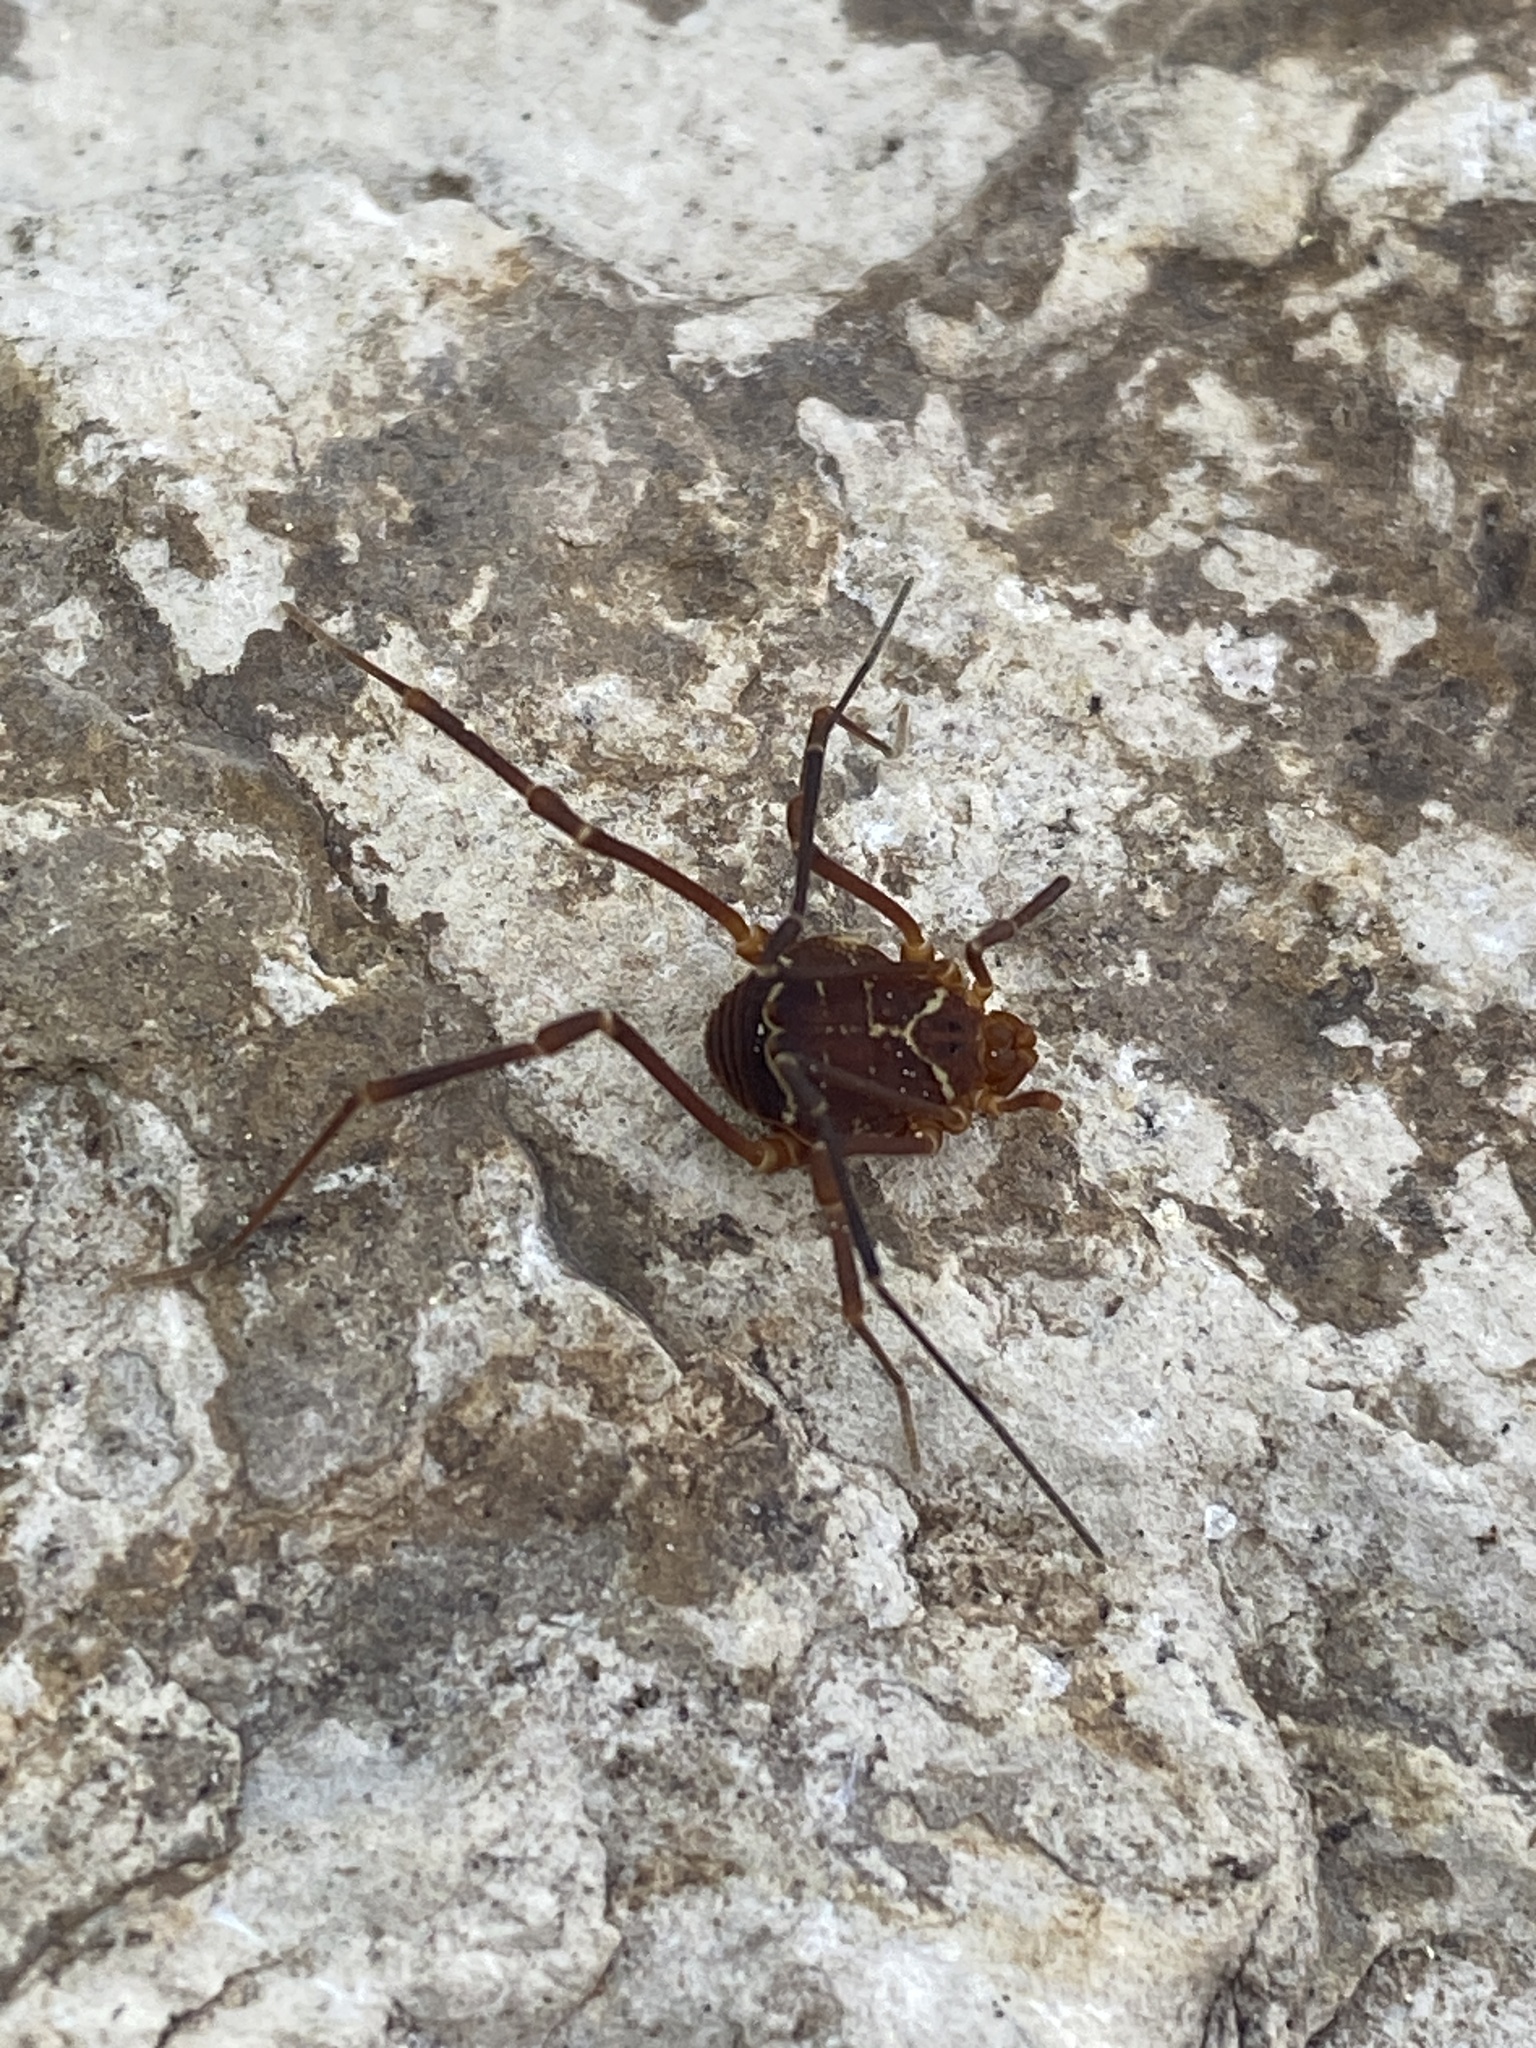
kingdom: Animalia
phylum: Arthropoda
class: Arachnida
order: Opiliones
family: Cosmetidae
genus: Libitioides
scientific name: Libitioides ornata
